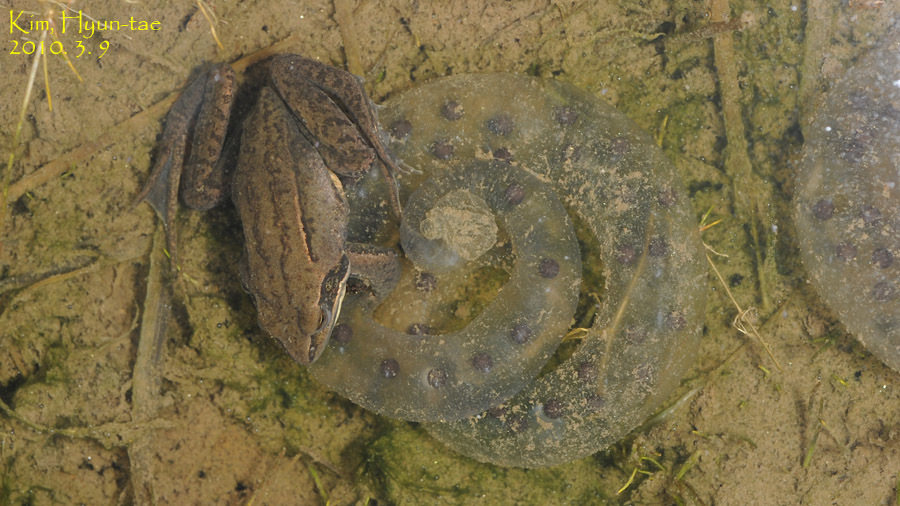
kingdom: Animalia
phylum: Chordata
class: Amphibia
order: Anura
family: Ranidae
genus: Rana
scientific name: Rana coreana
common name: Korean brown frog
